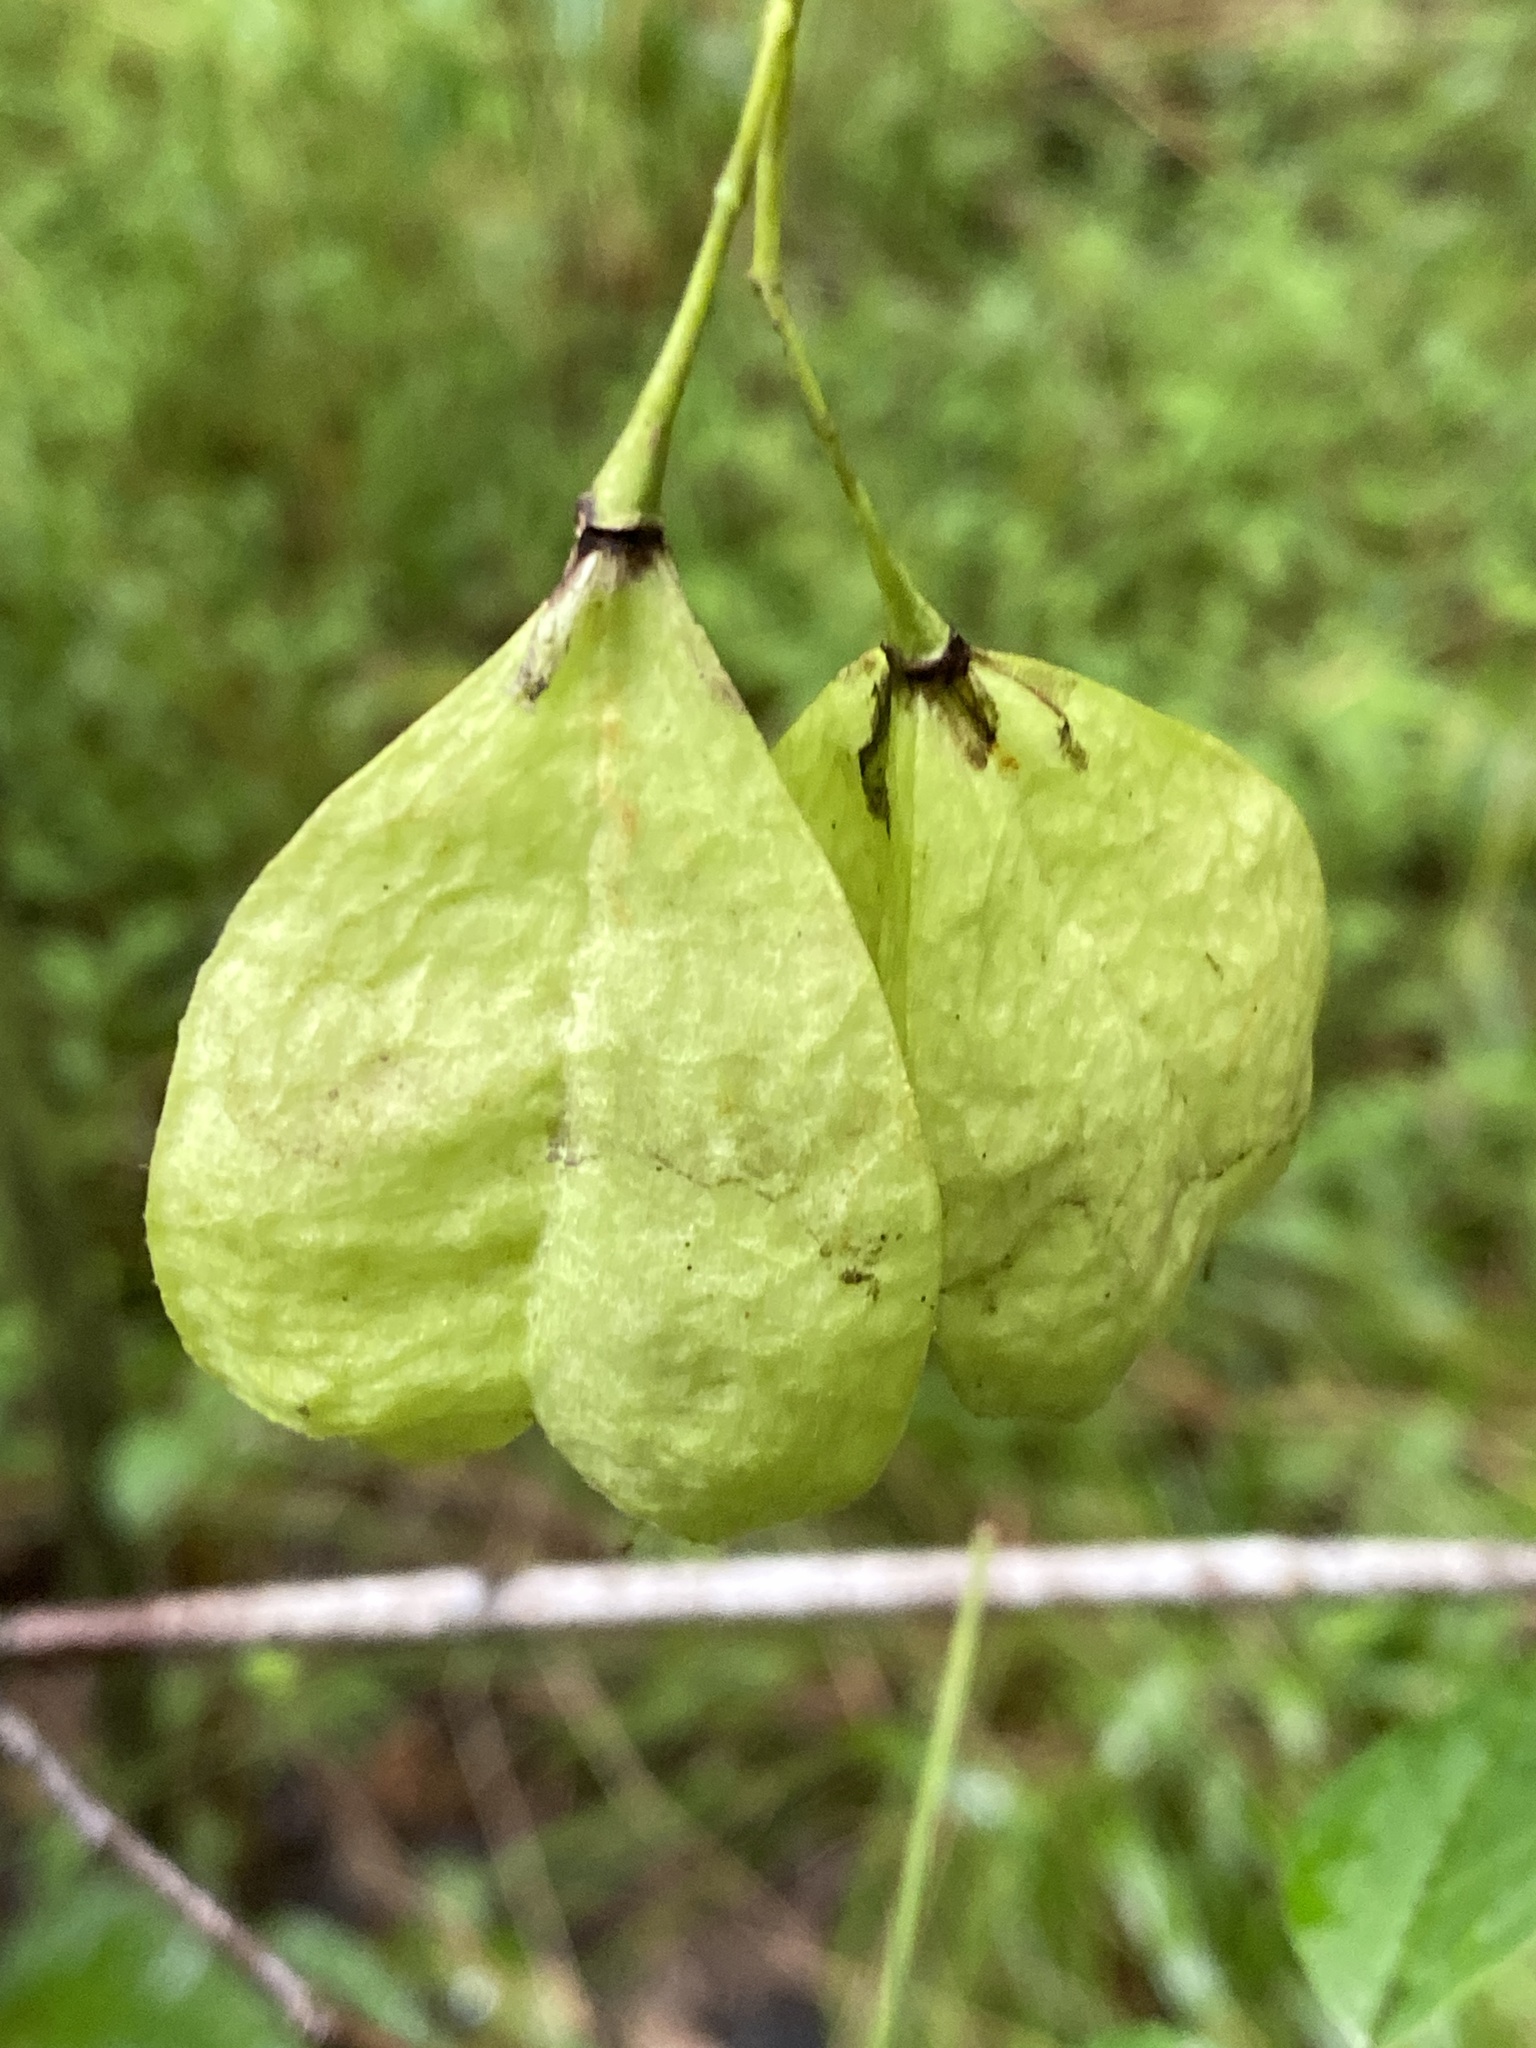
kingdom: Plantae
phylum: Tracheophyta
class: Magnoliopsida
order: Crossosomatales
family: Staphyleaceae
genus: Staphylea
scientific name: Staphylea trifolia
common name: American bladdernut
